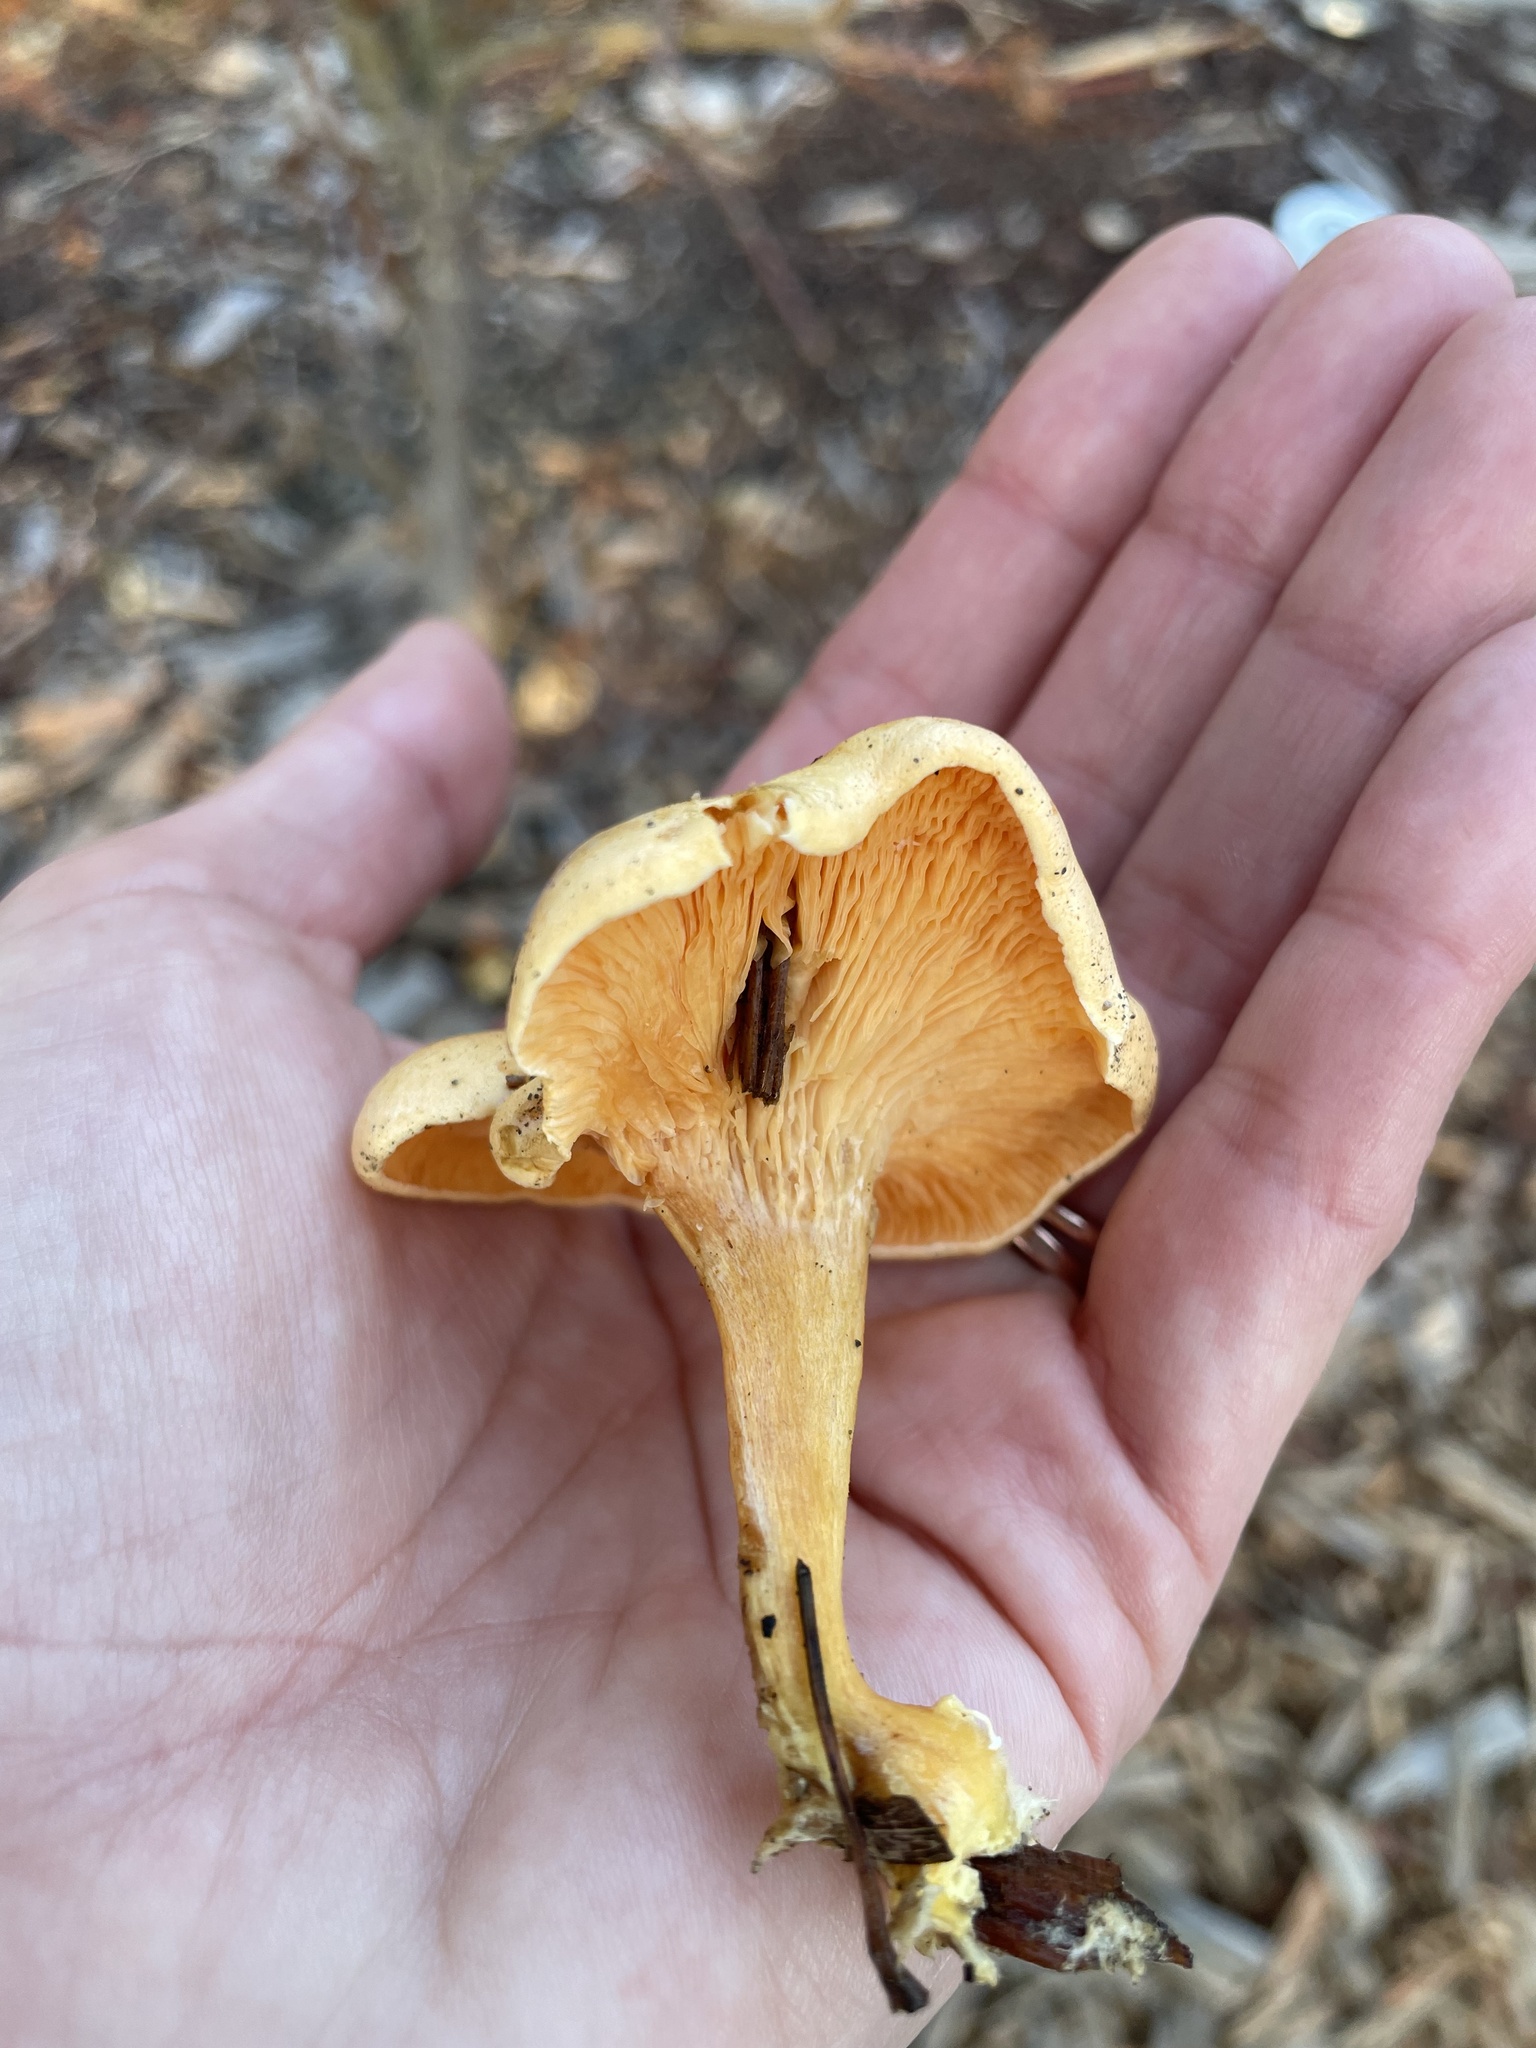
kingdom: Fungi
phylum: Basidiomycota
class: Agaricomycetes
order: Boletales
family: Hygrophoropsidaceae
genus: Hygrophoropsis
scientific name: Hygrophoropsis aurantiaca
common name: False chanterelle
